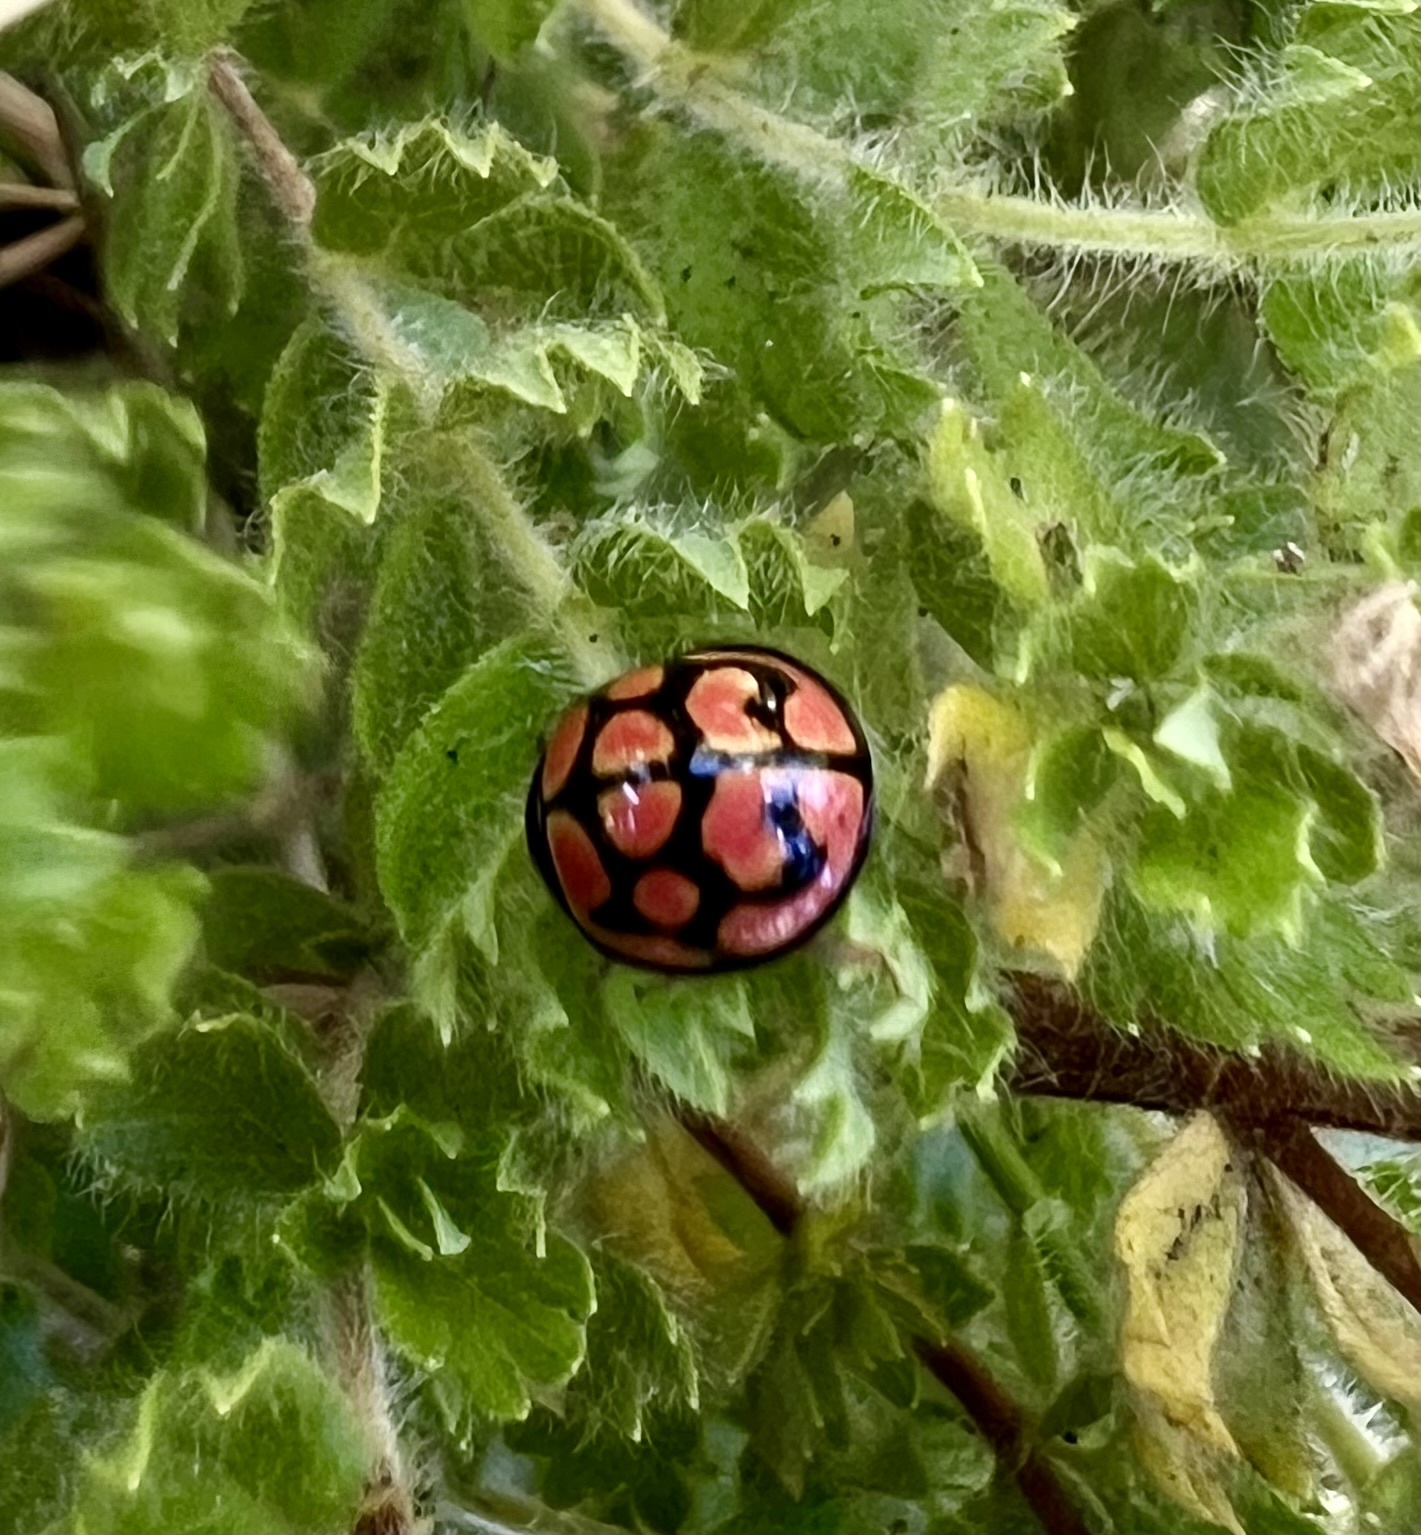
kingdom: Animalia
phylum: Arthropoda
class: Insecta
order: Coleoptera
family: Coccinellidae
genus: Cheilomenes
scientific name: Cheilomenes lunata
